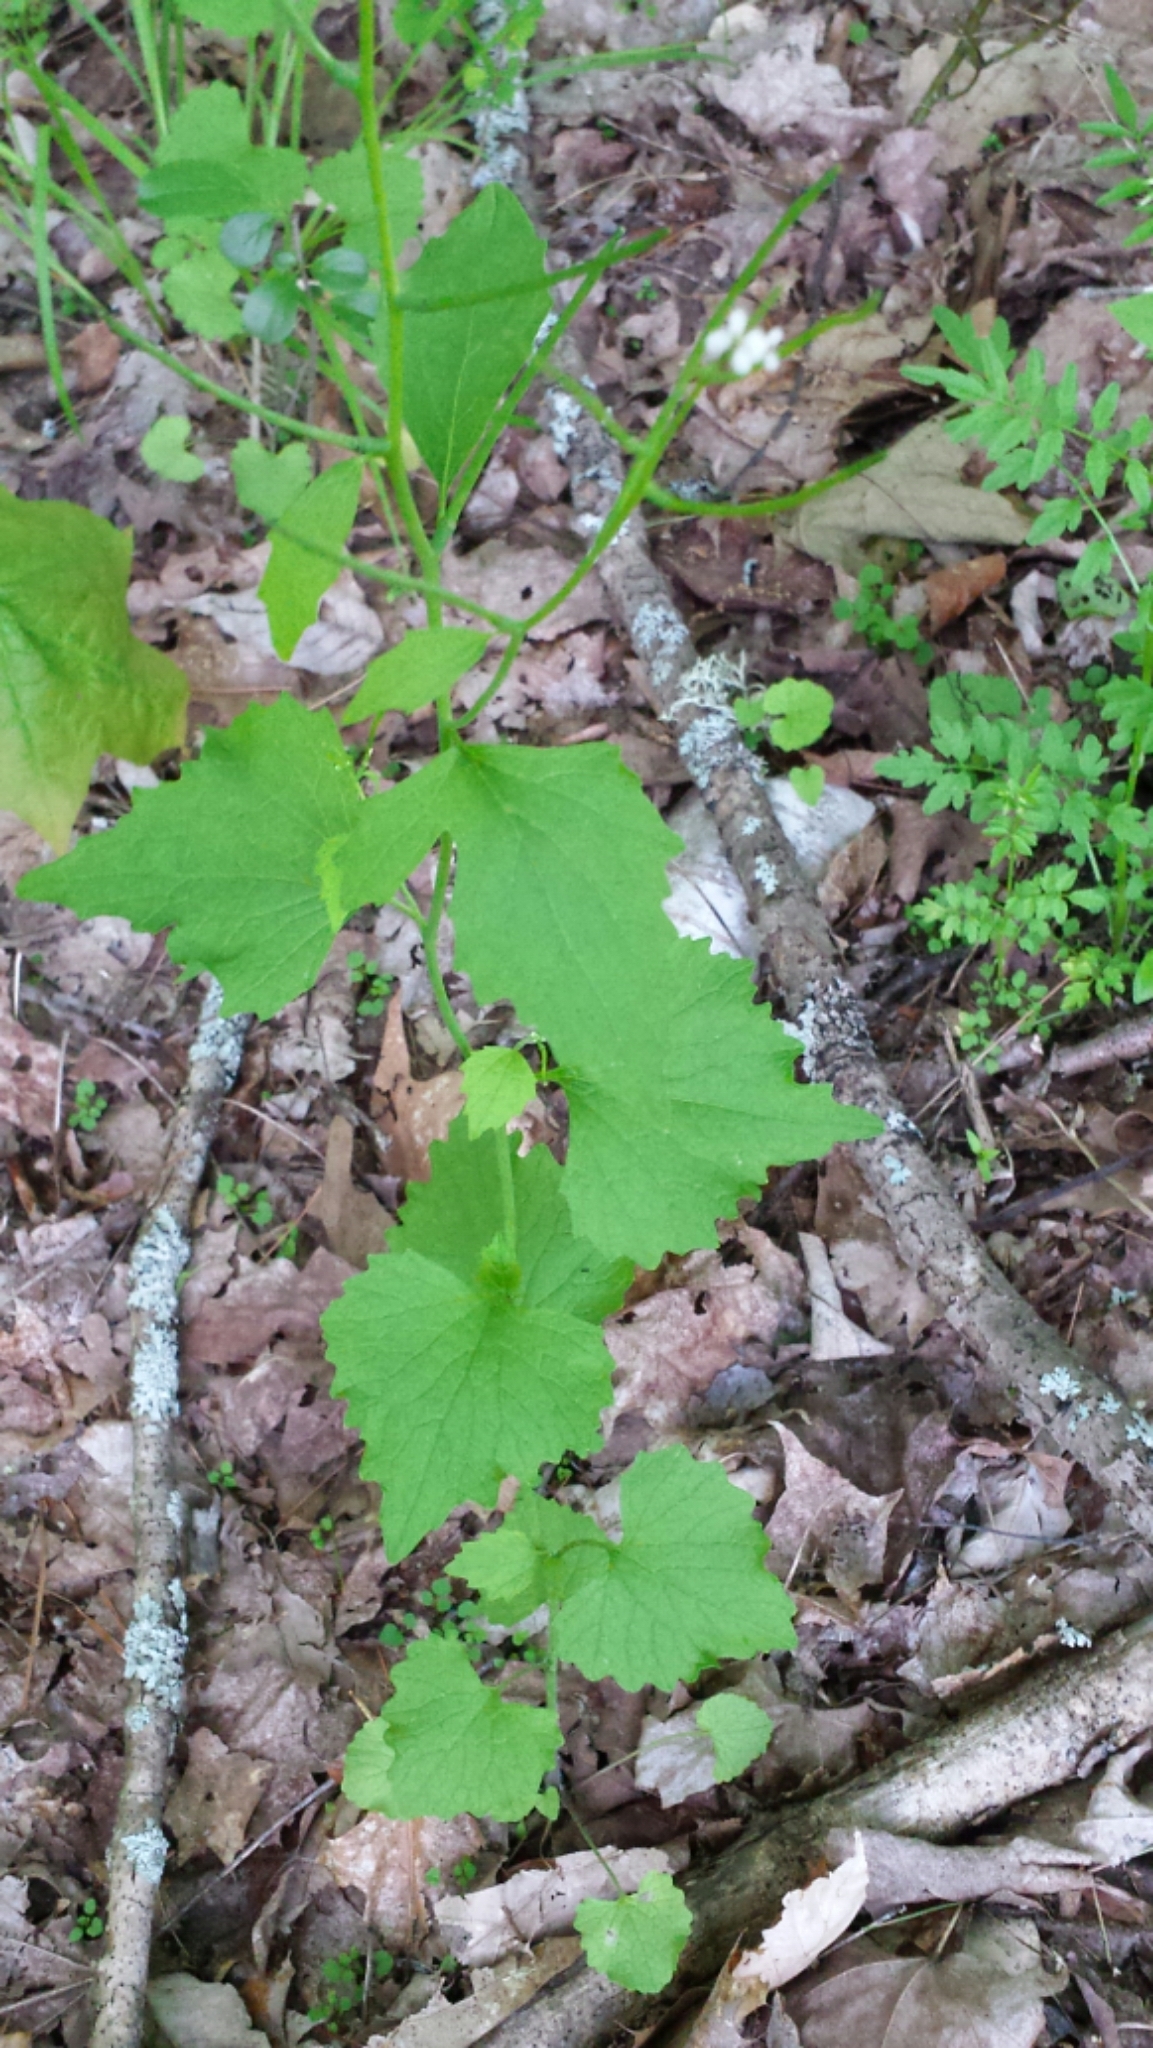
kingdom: Plantae
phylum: Tracheophyta
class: Magnoliopsida
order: Brassicales
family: Brassicaceae
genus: Alliaria
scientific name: Alliaria petiolata
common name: Garlic mustard
